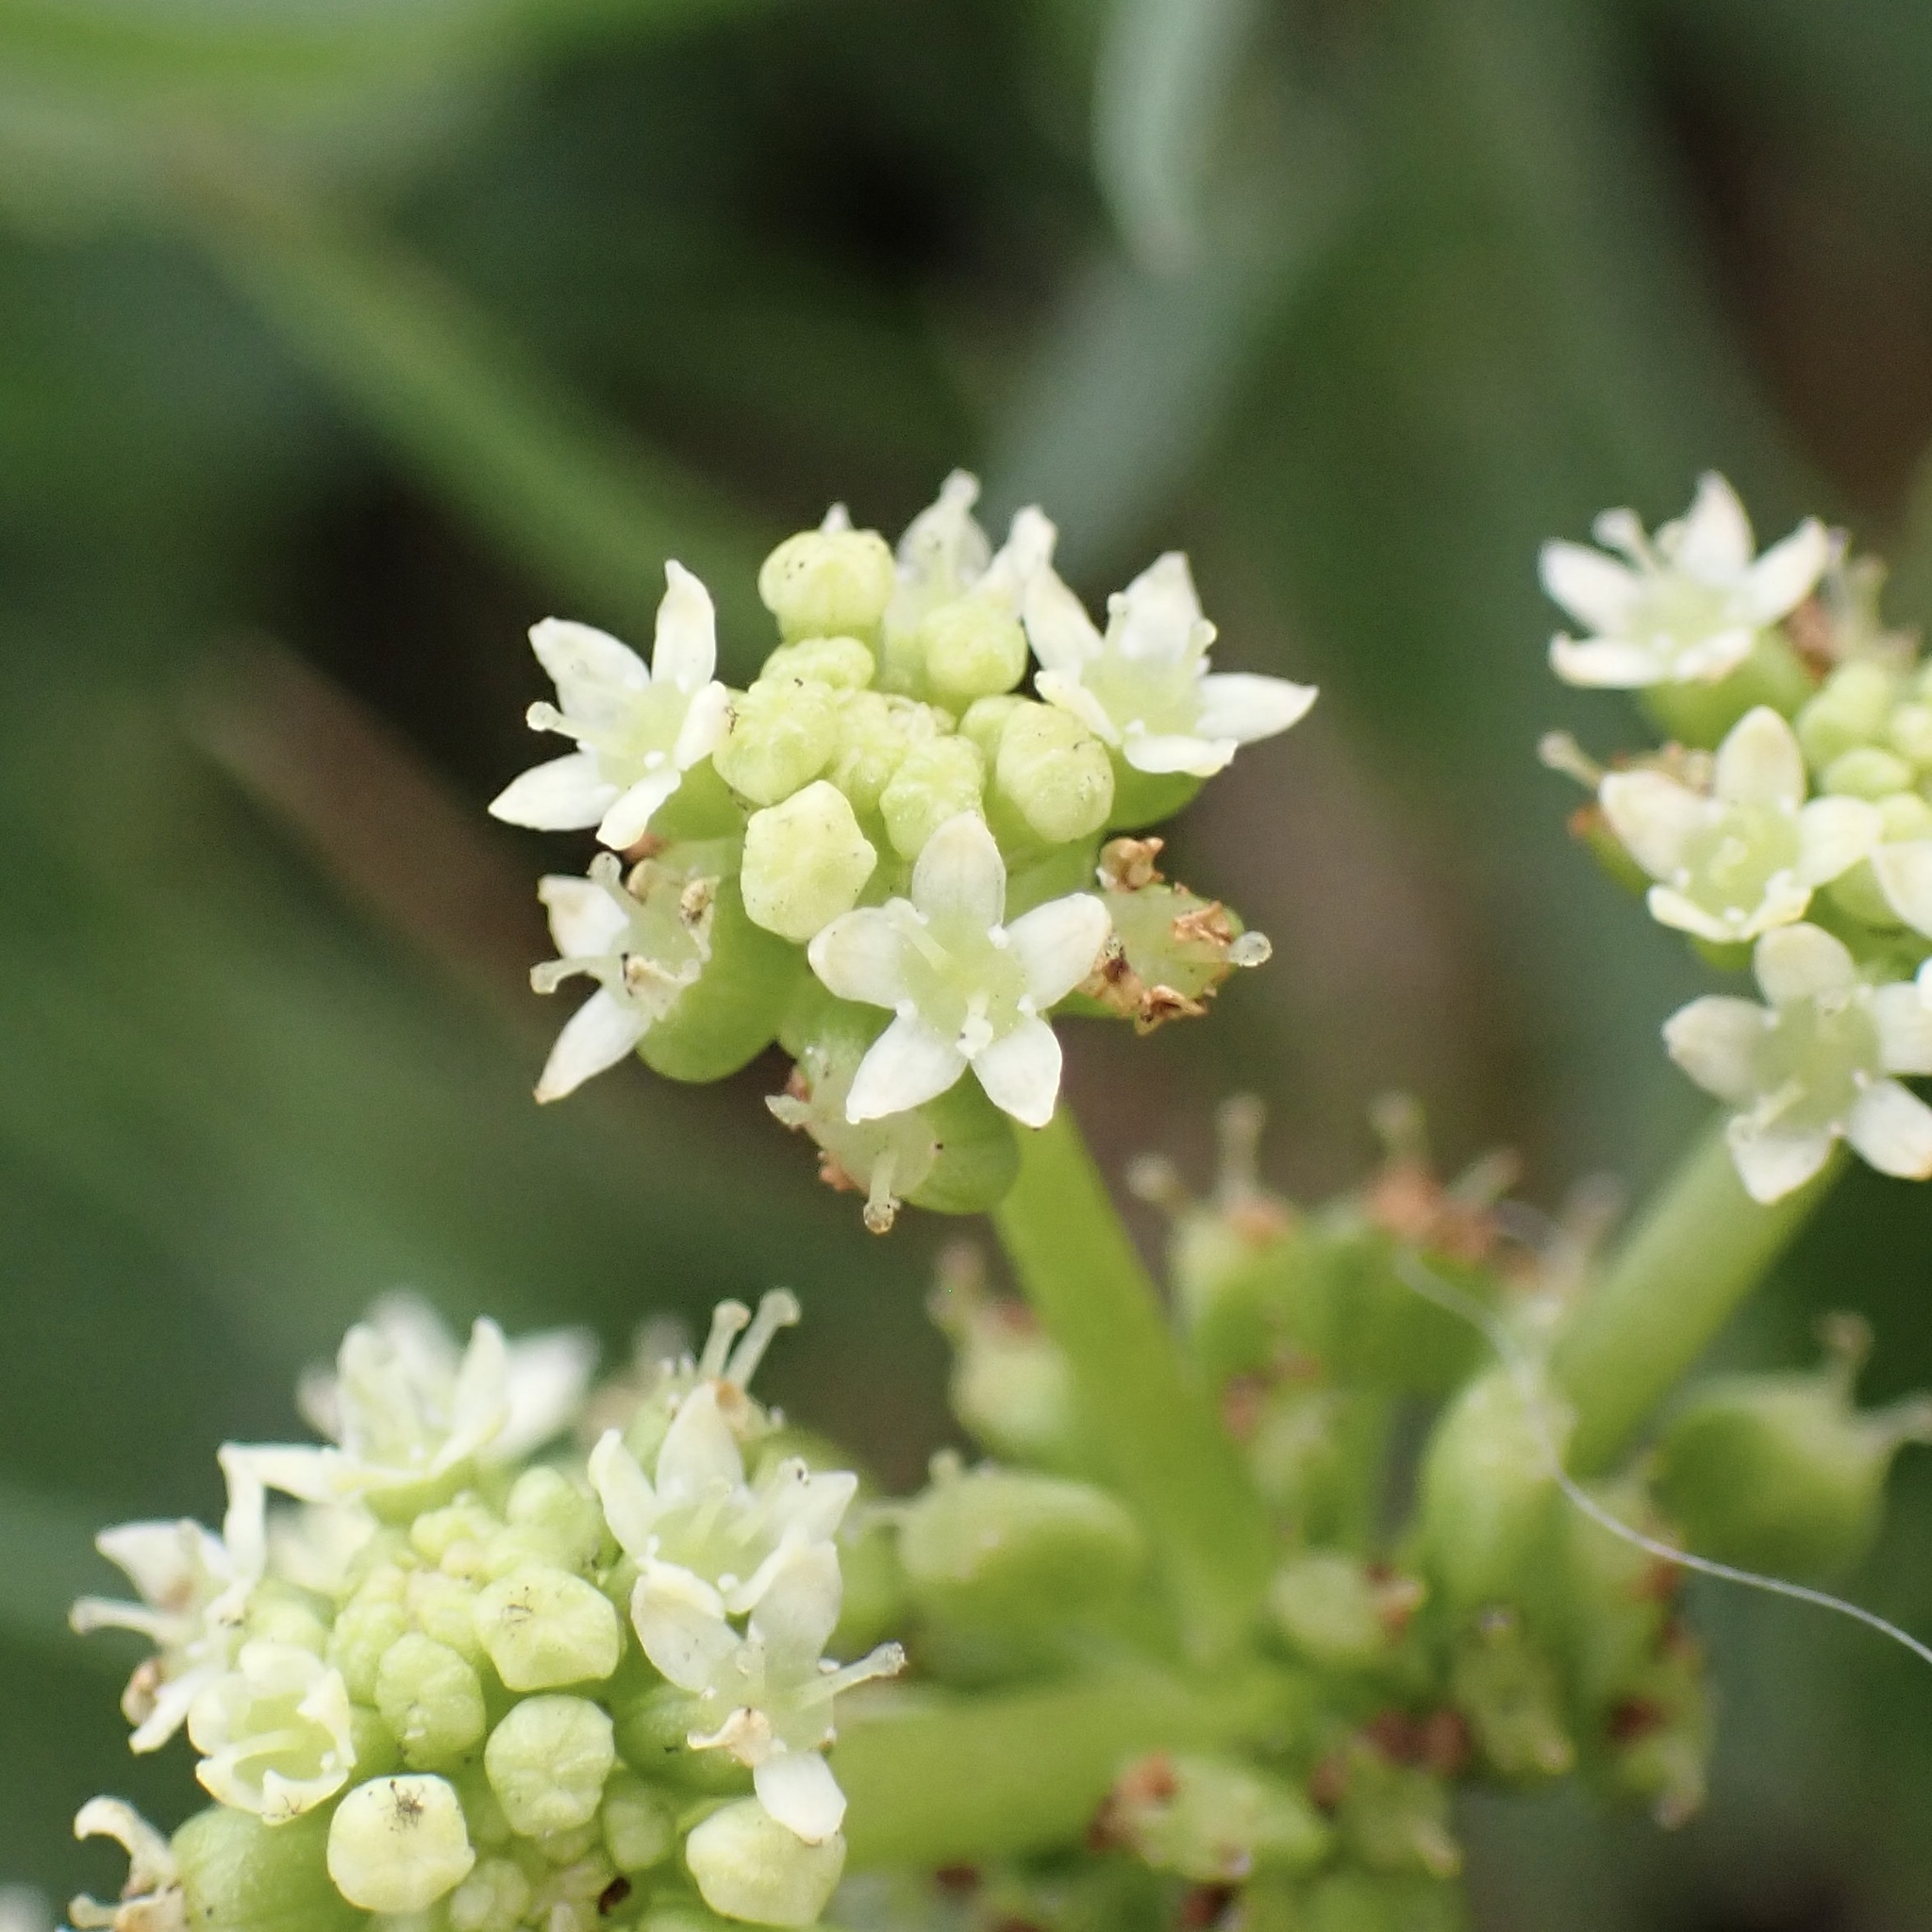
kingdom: Plantae
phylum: Tracheophyta
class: Magnoliopsida
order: Apiales
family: Araliaceae
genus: Hydrocotyle
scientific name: Hydrocotyle bonariensis
